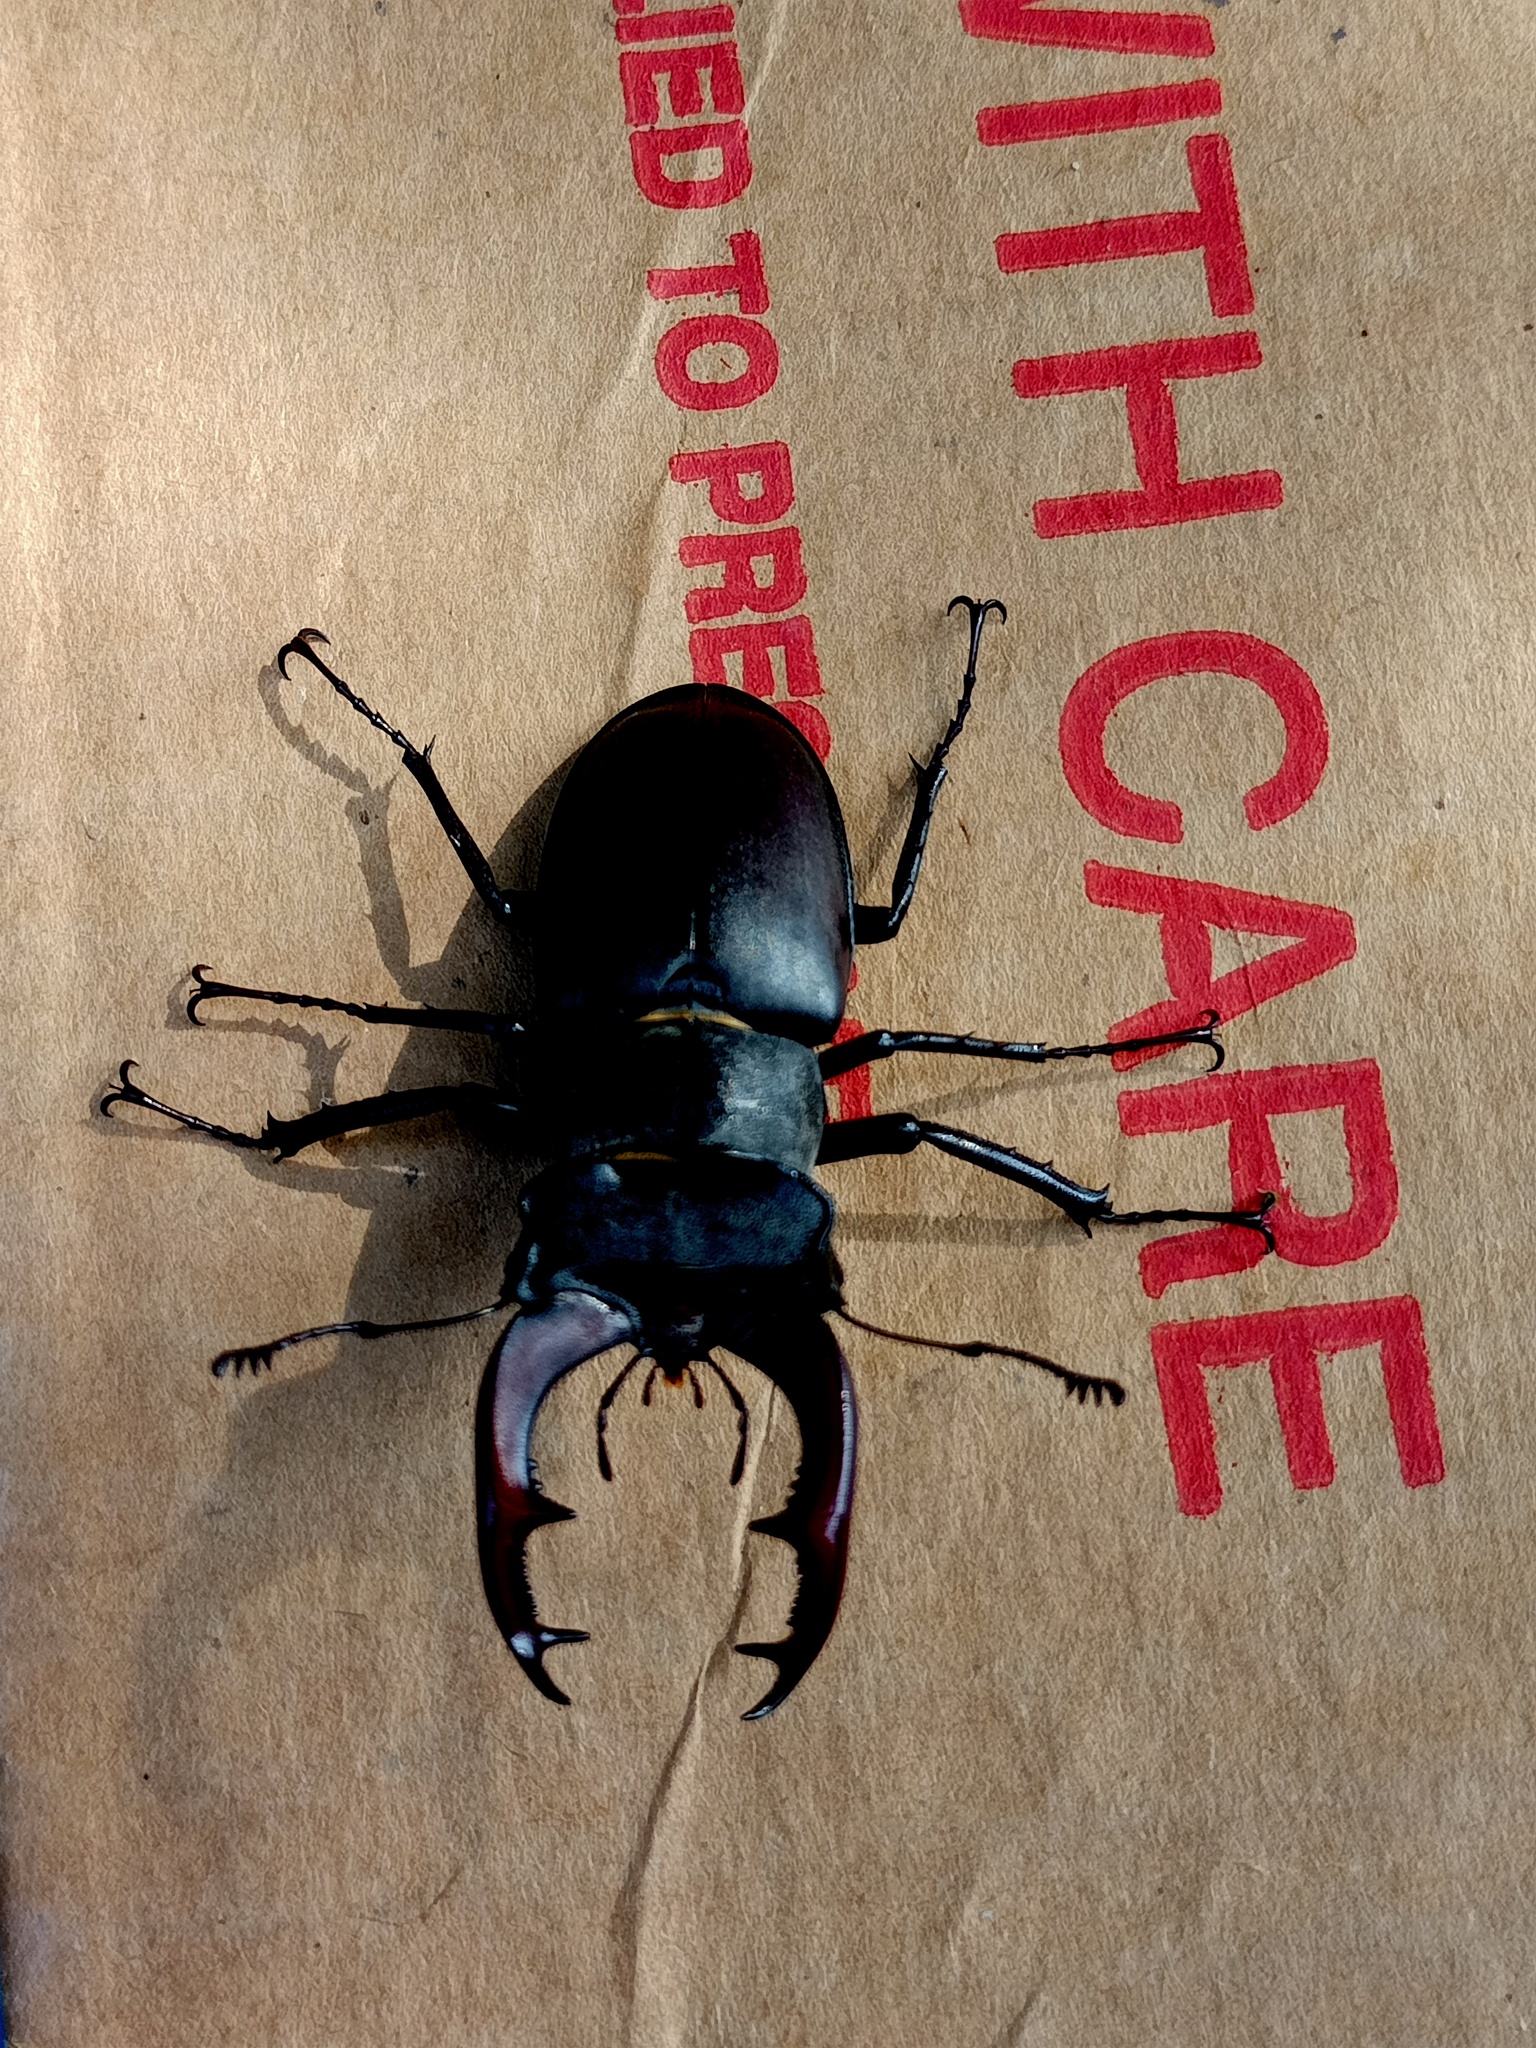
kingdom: Animalia
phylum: Arthropoda
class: Insecta
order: Coleoptera
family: Lucanidae
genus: Lucanus
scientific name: Lucanus cervus
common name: Stag beetle
